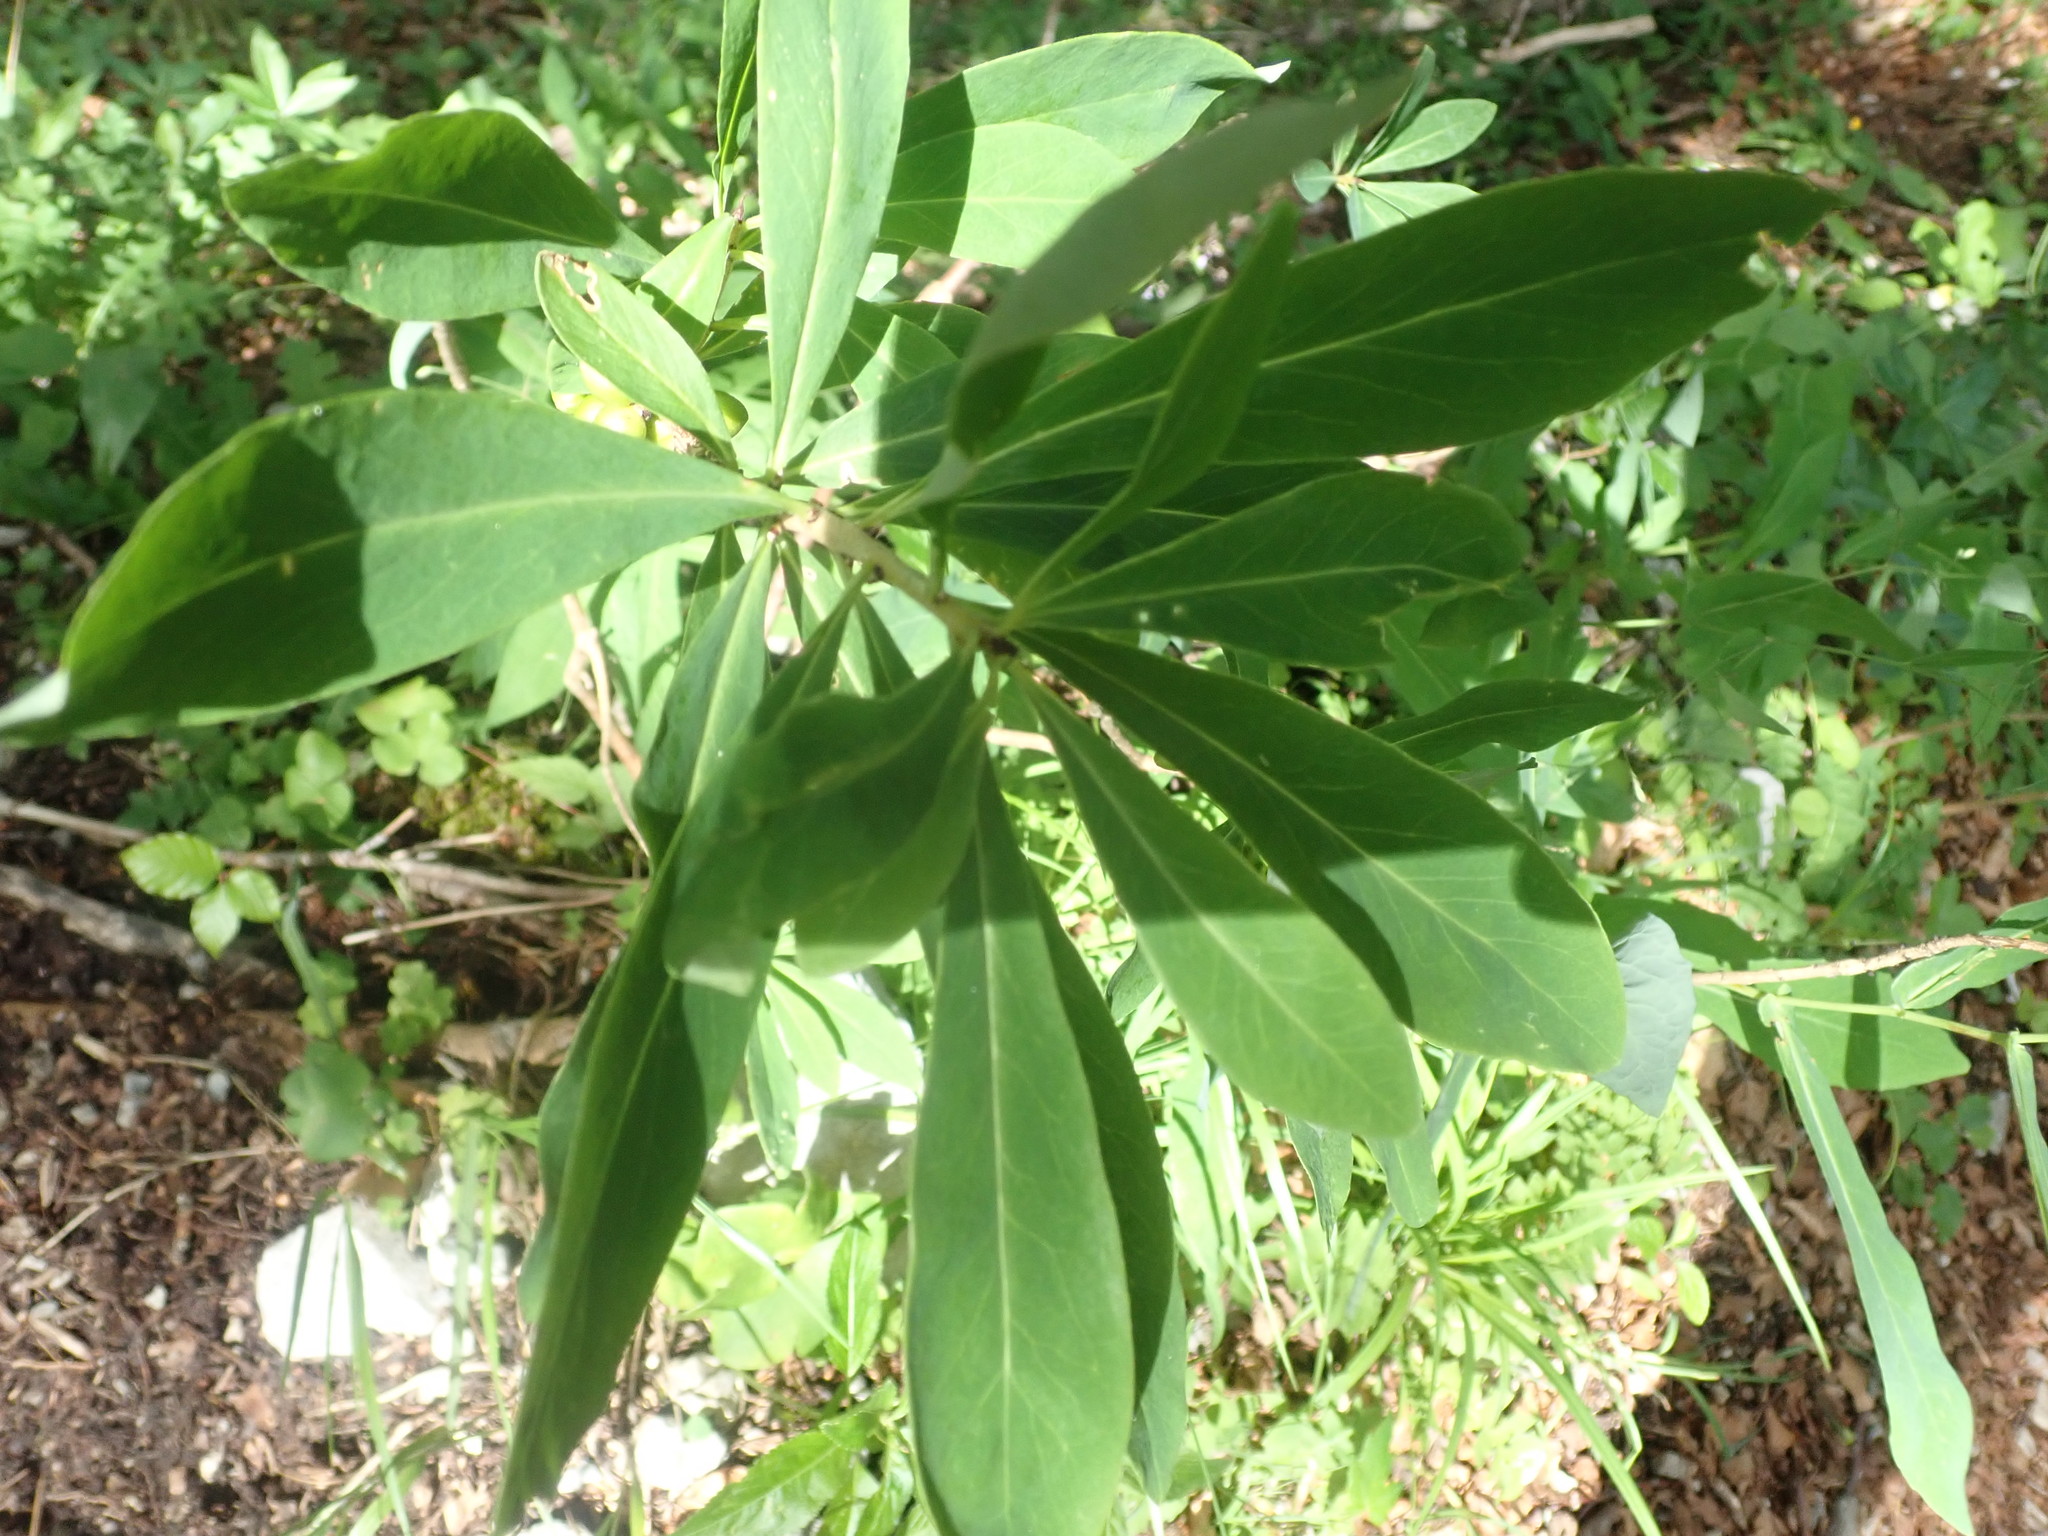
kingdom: Plantae
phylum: Tracheophyta
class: Magnoliopsida
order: Malvales
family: Thymelaeaceae
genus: Daphne
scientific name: Daphne mezereum
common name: Mezereon
